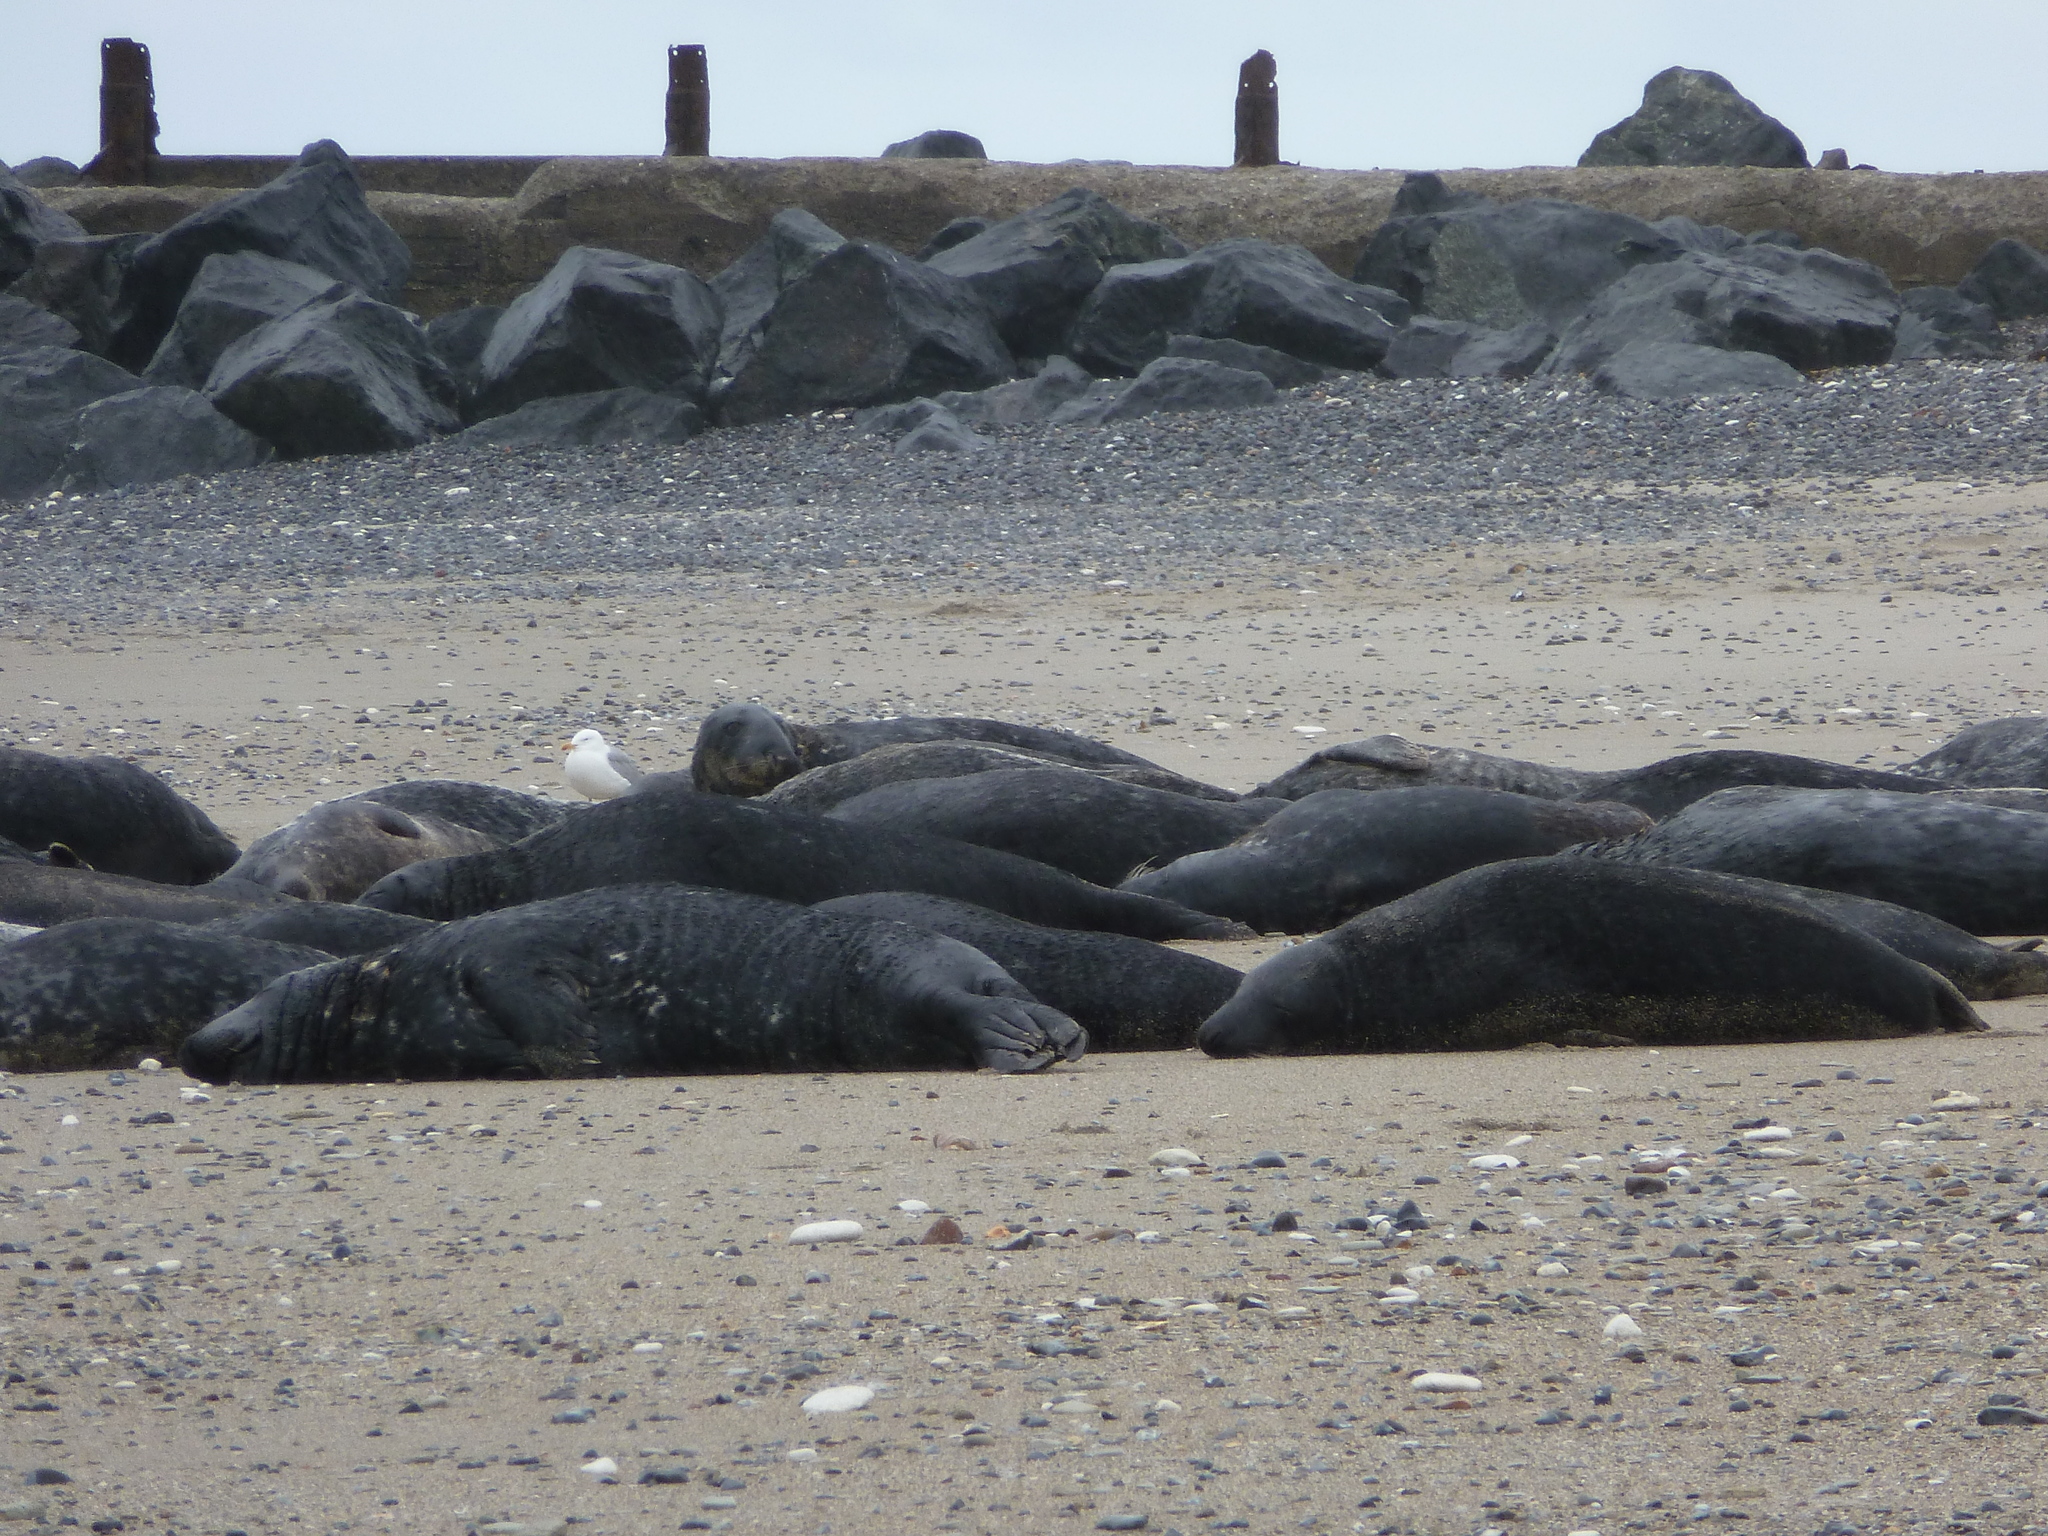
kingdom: Animalia
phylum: Chordata
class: Mammalia
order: Carnivora
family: Phocidae
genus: Halichoerus
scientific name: Halichoerus grypus
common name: Grey seal
